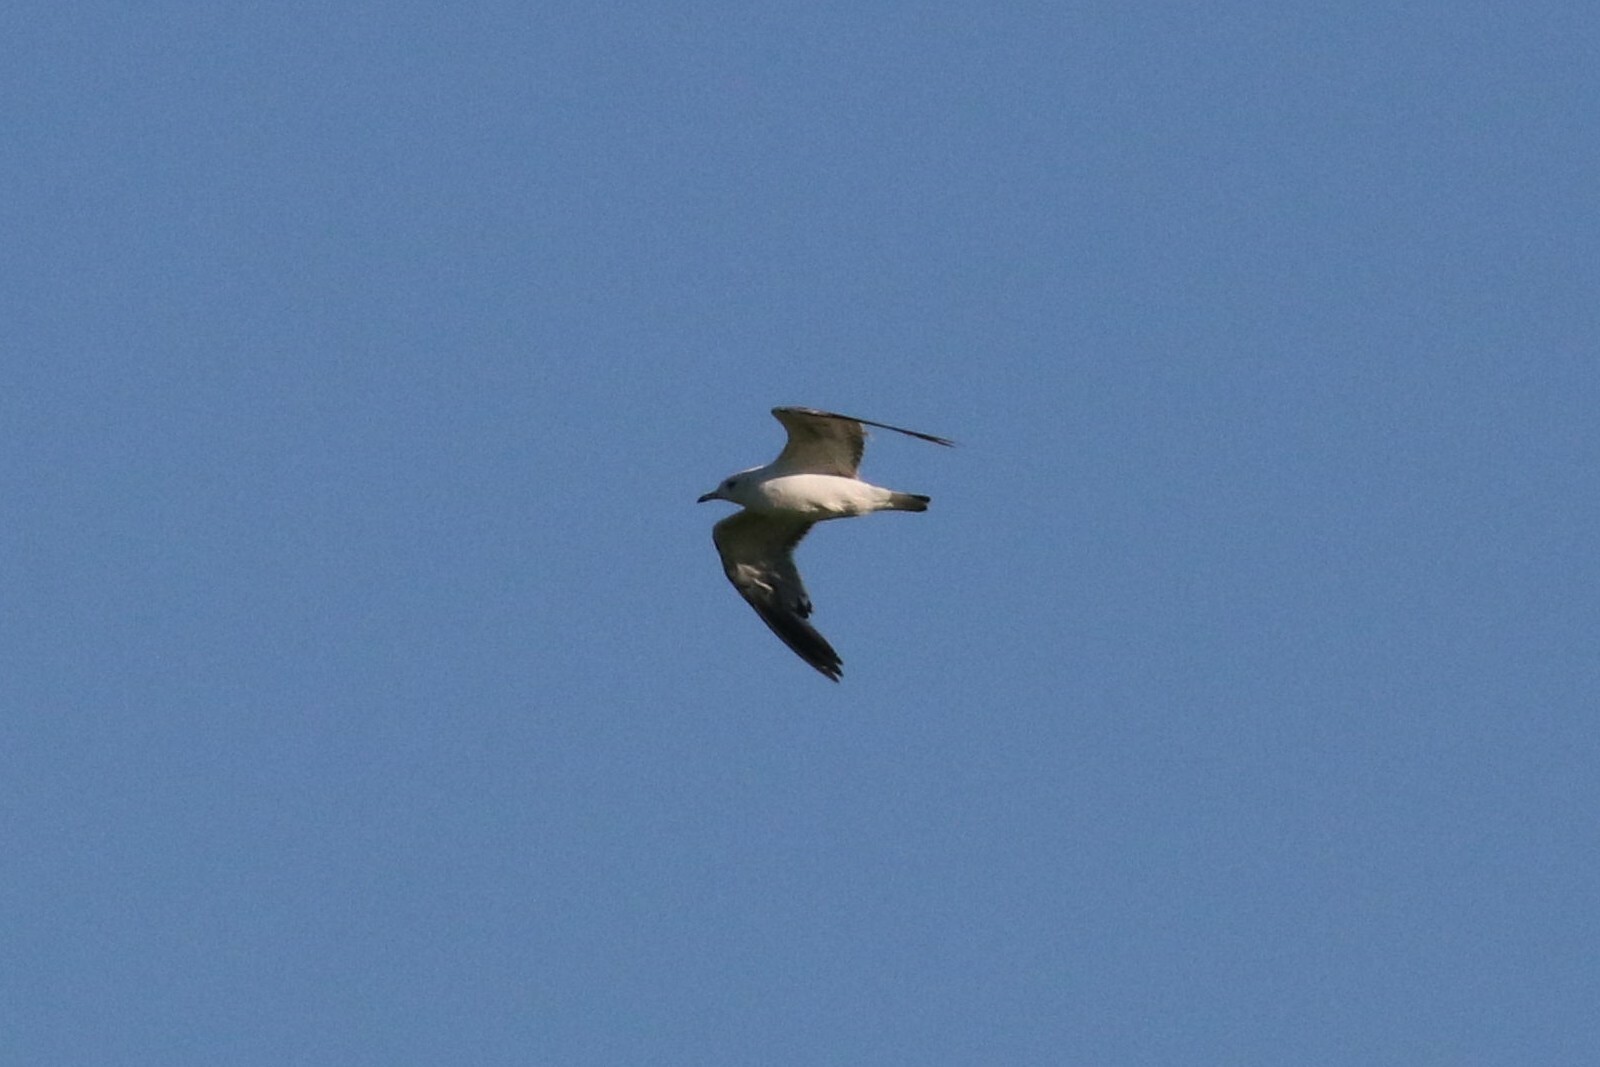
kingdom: Animalia
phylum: Chordata
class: Aves
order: Charadriiformes
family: Laridae
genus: Larus
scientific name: Larus canus
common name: Mew gull
